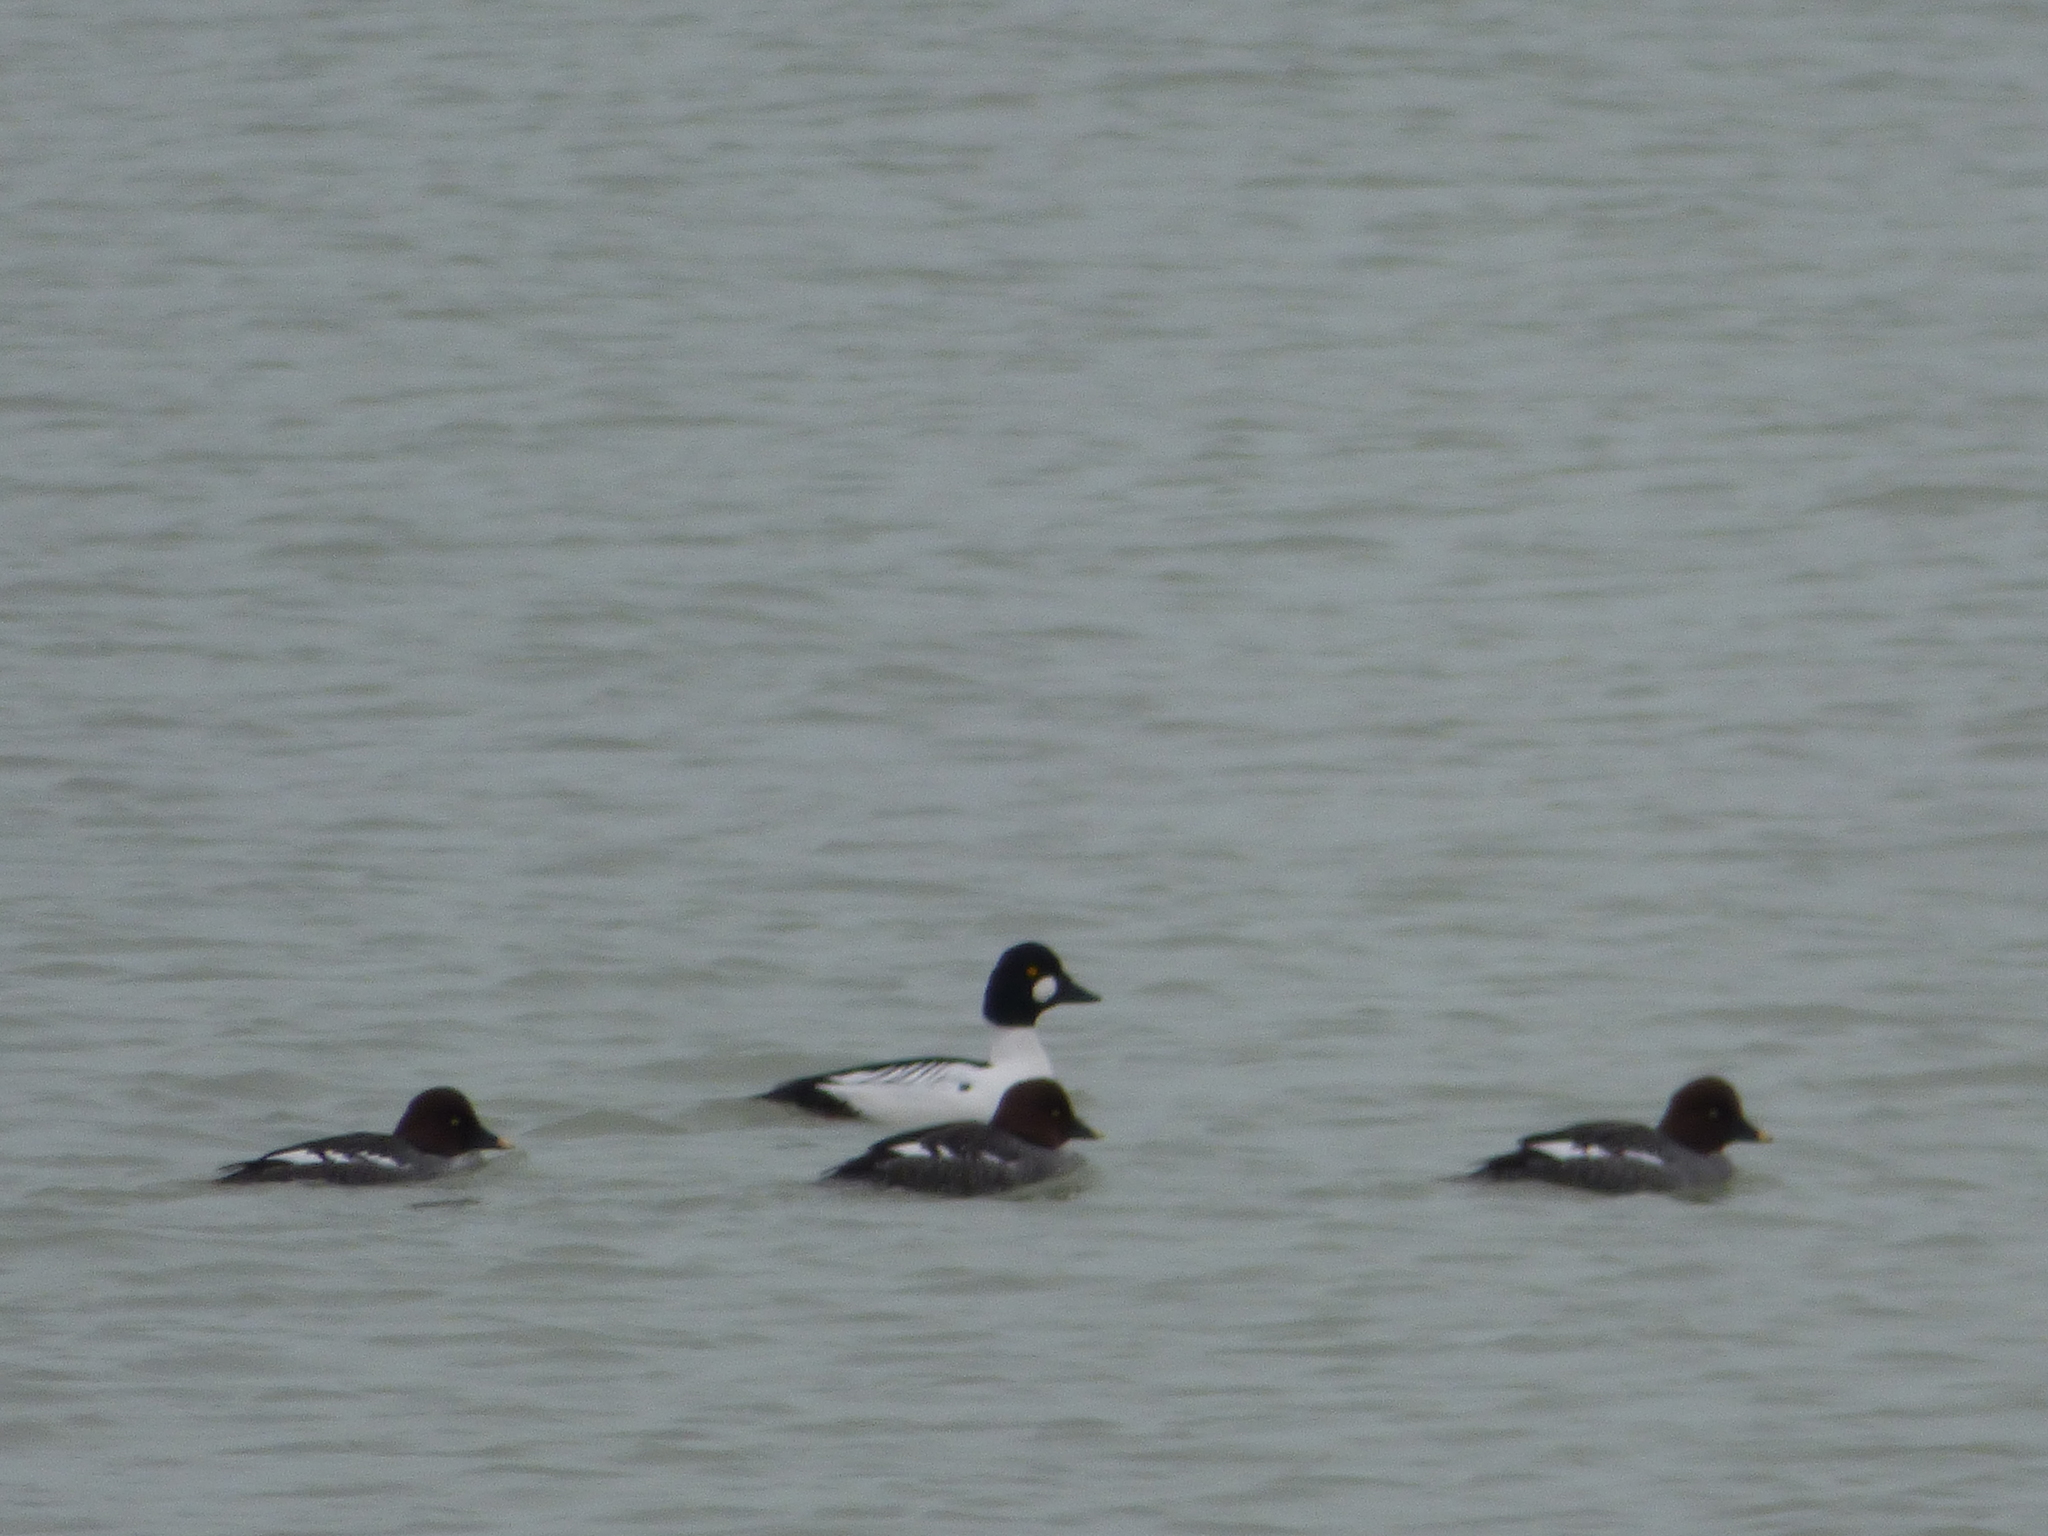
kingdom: Animalia
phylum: Chordata
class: Aves
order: Anseriformes
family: Anatidae
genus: Bucephala
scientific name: Bucephala clangula
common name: Common goldeneye
